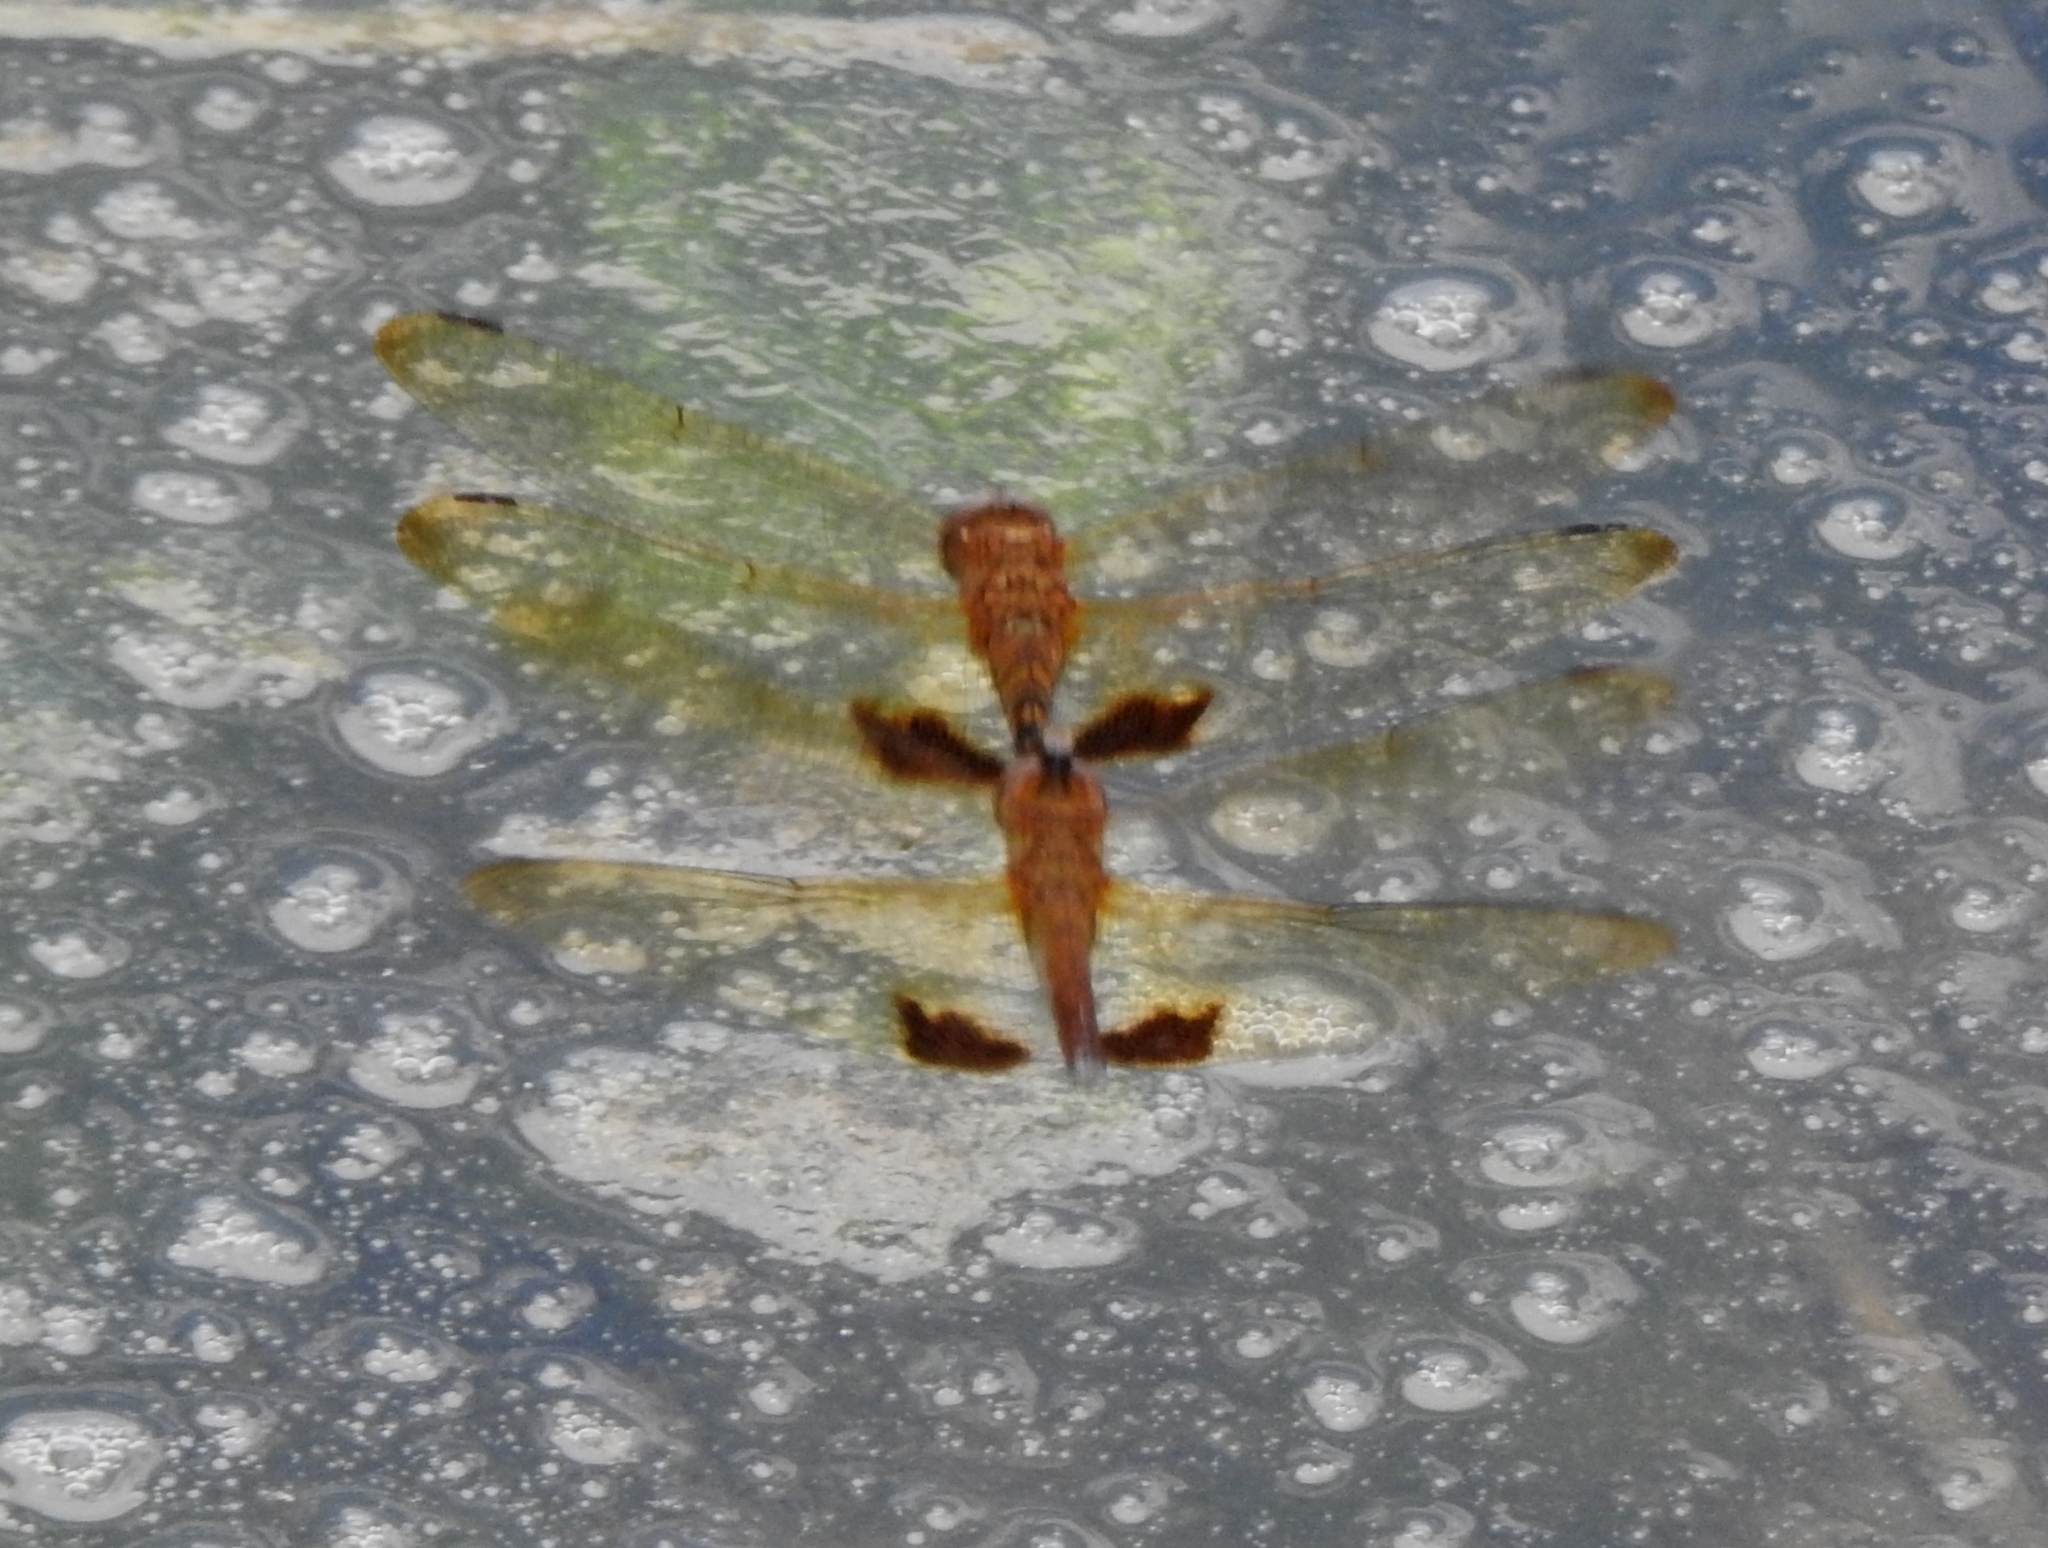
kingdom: Animalia
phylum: Arthropoda
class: Insecta
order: Odonata
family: Libellulidae
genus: Hydrobasileus
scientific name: Hydrobasileus croceus
